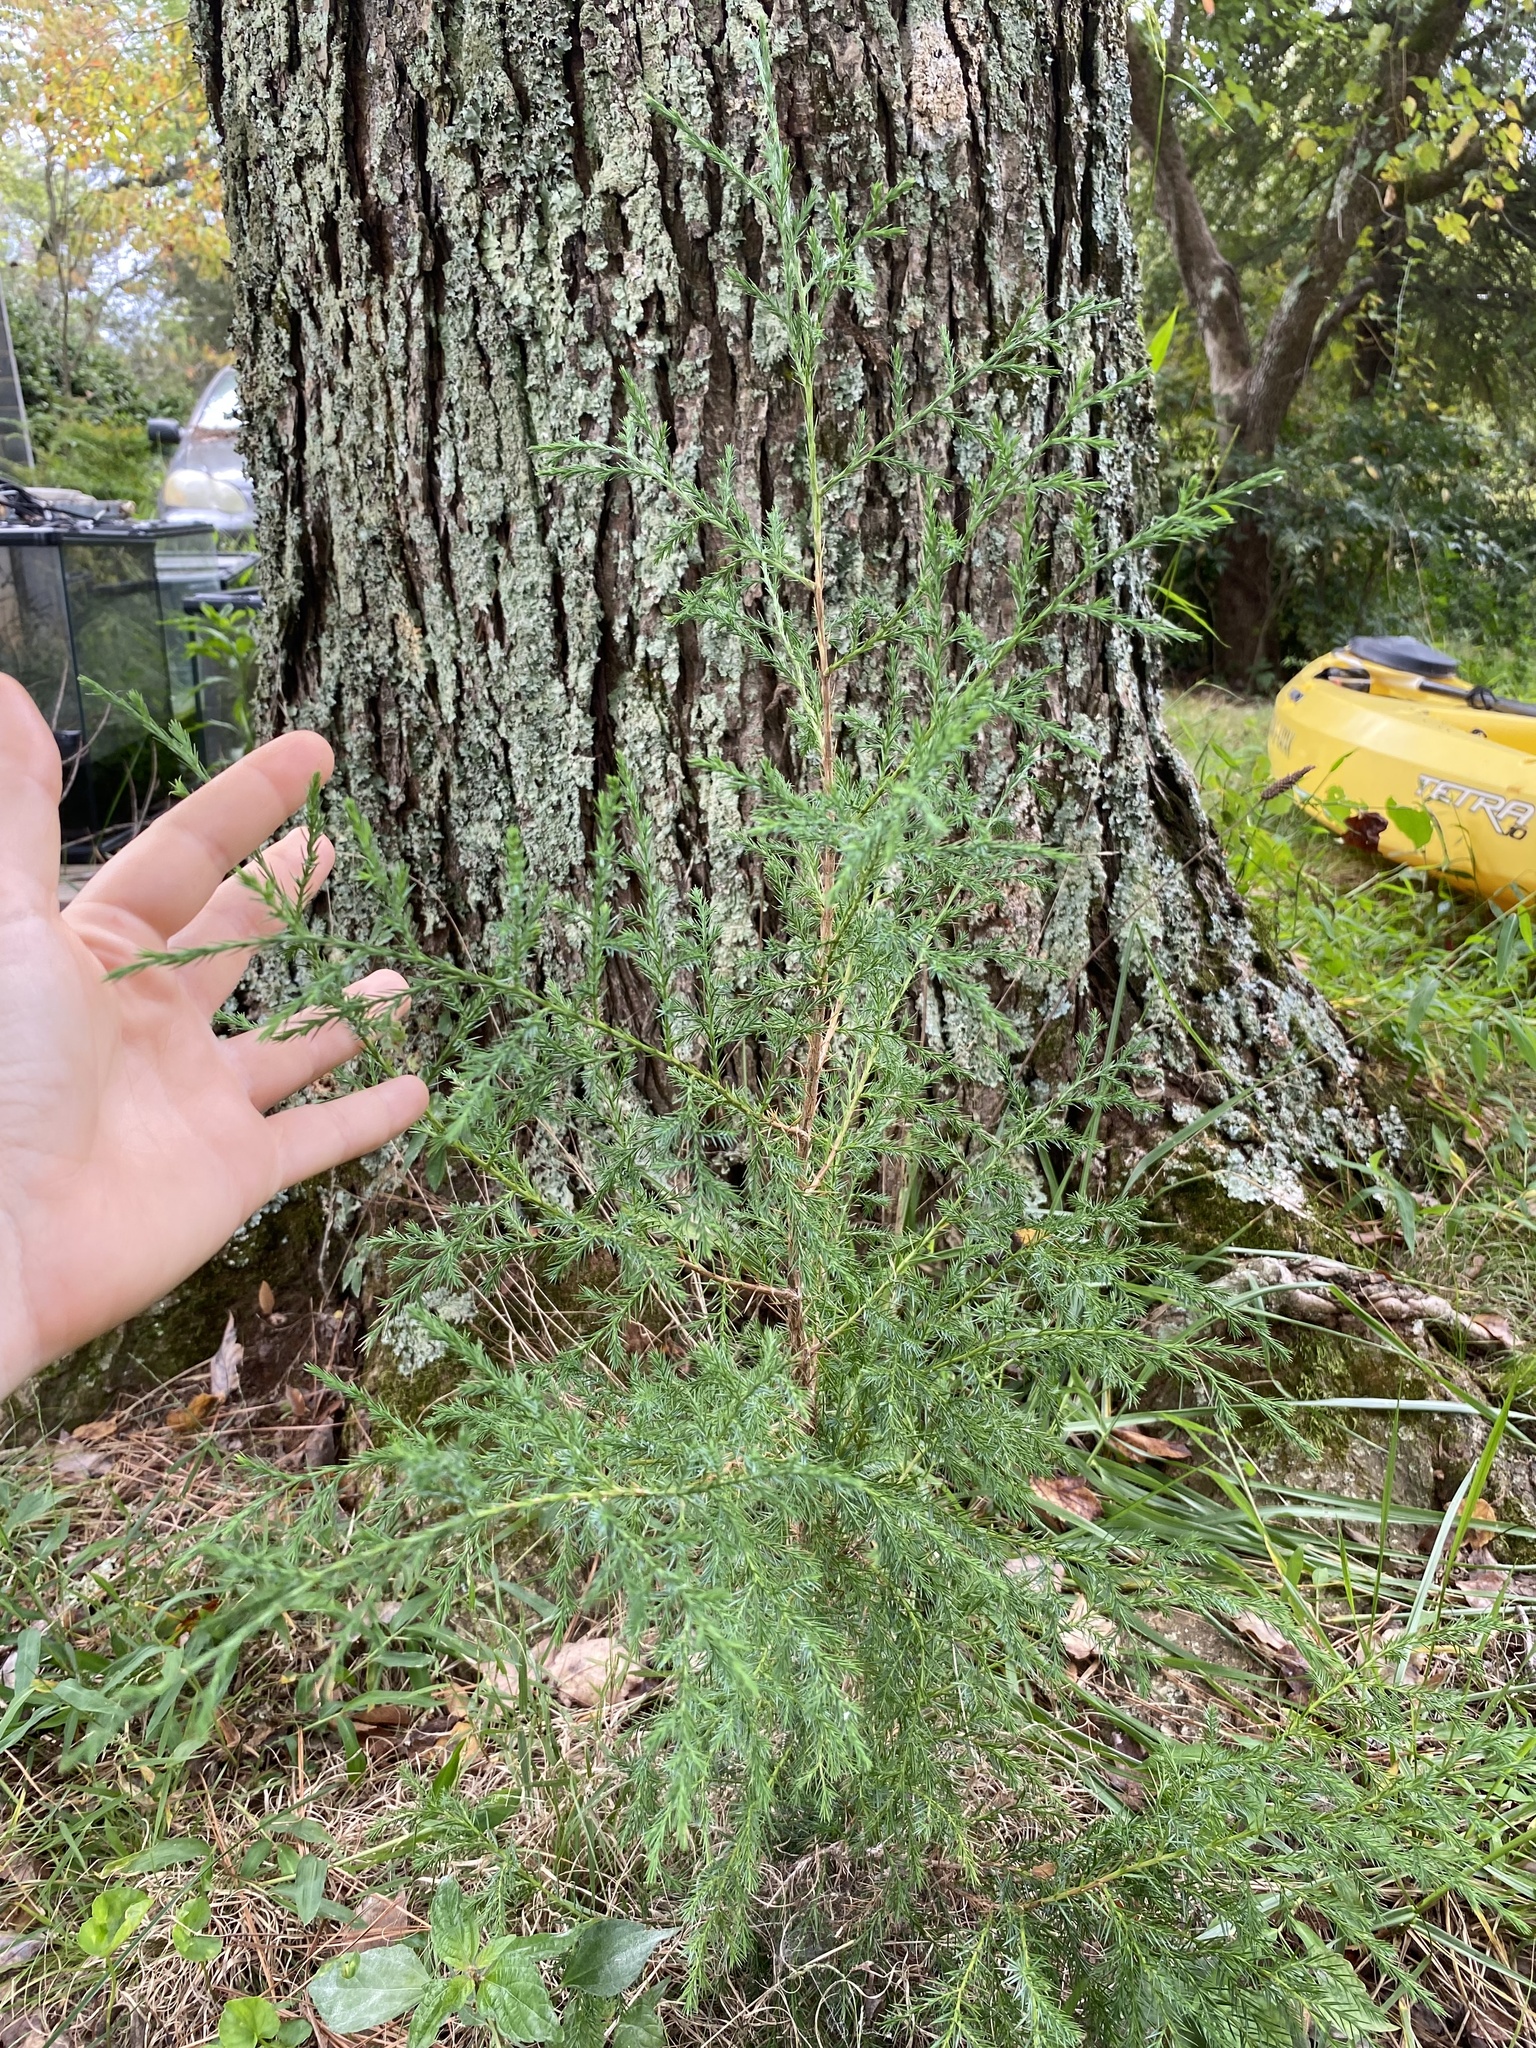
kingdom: Plantae
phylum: Tracheophyta
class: Pinopsida
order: Pinales
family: Cupressaceae
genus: Juniperus
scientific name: Juniperus virginiana
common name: Red juniper
